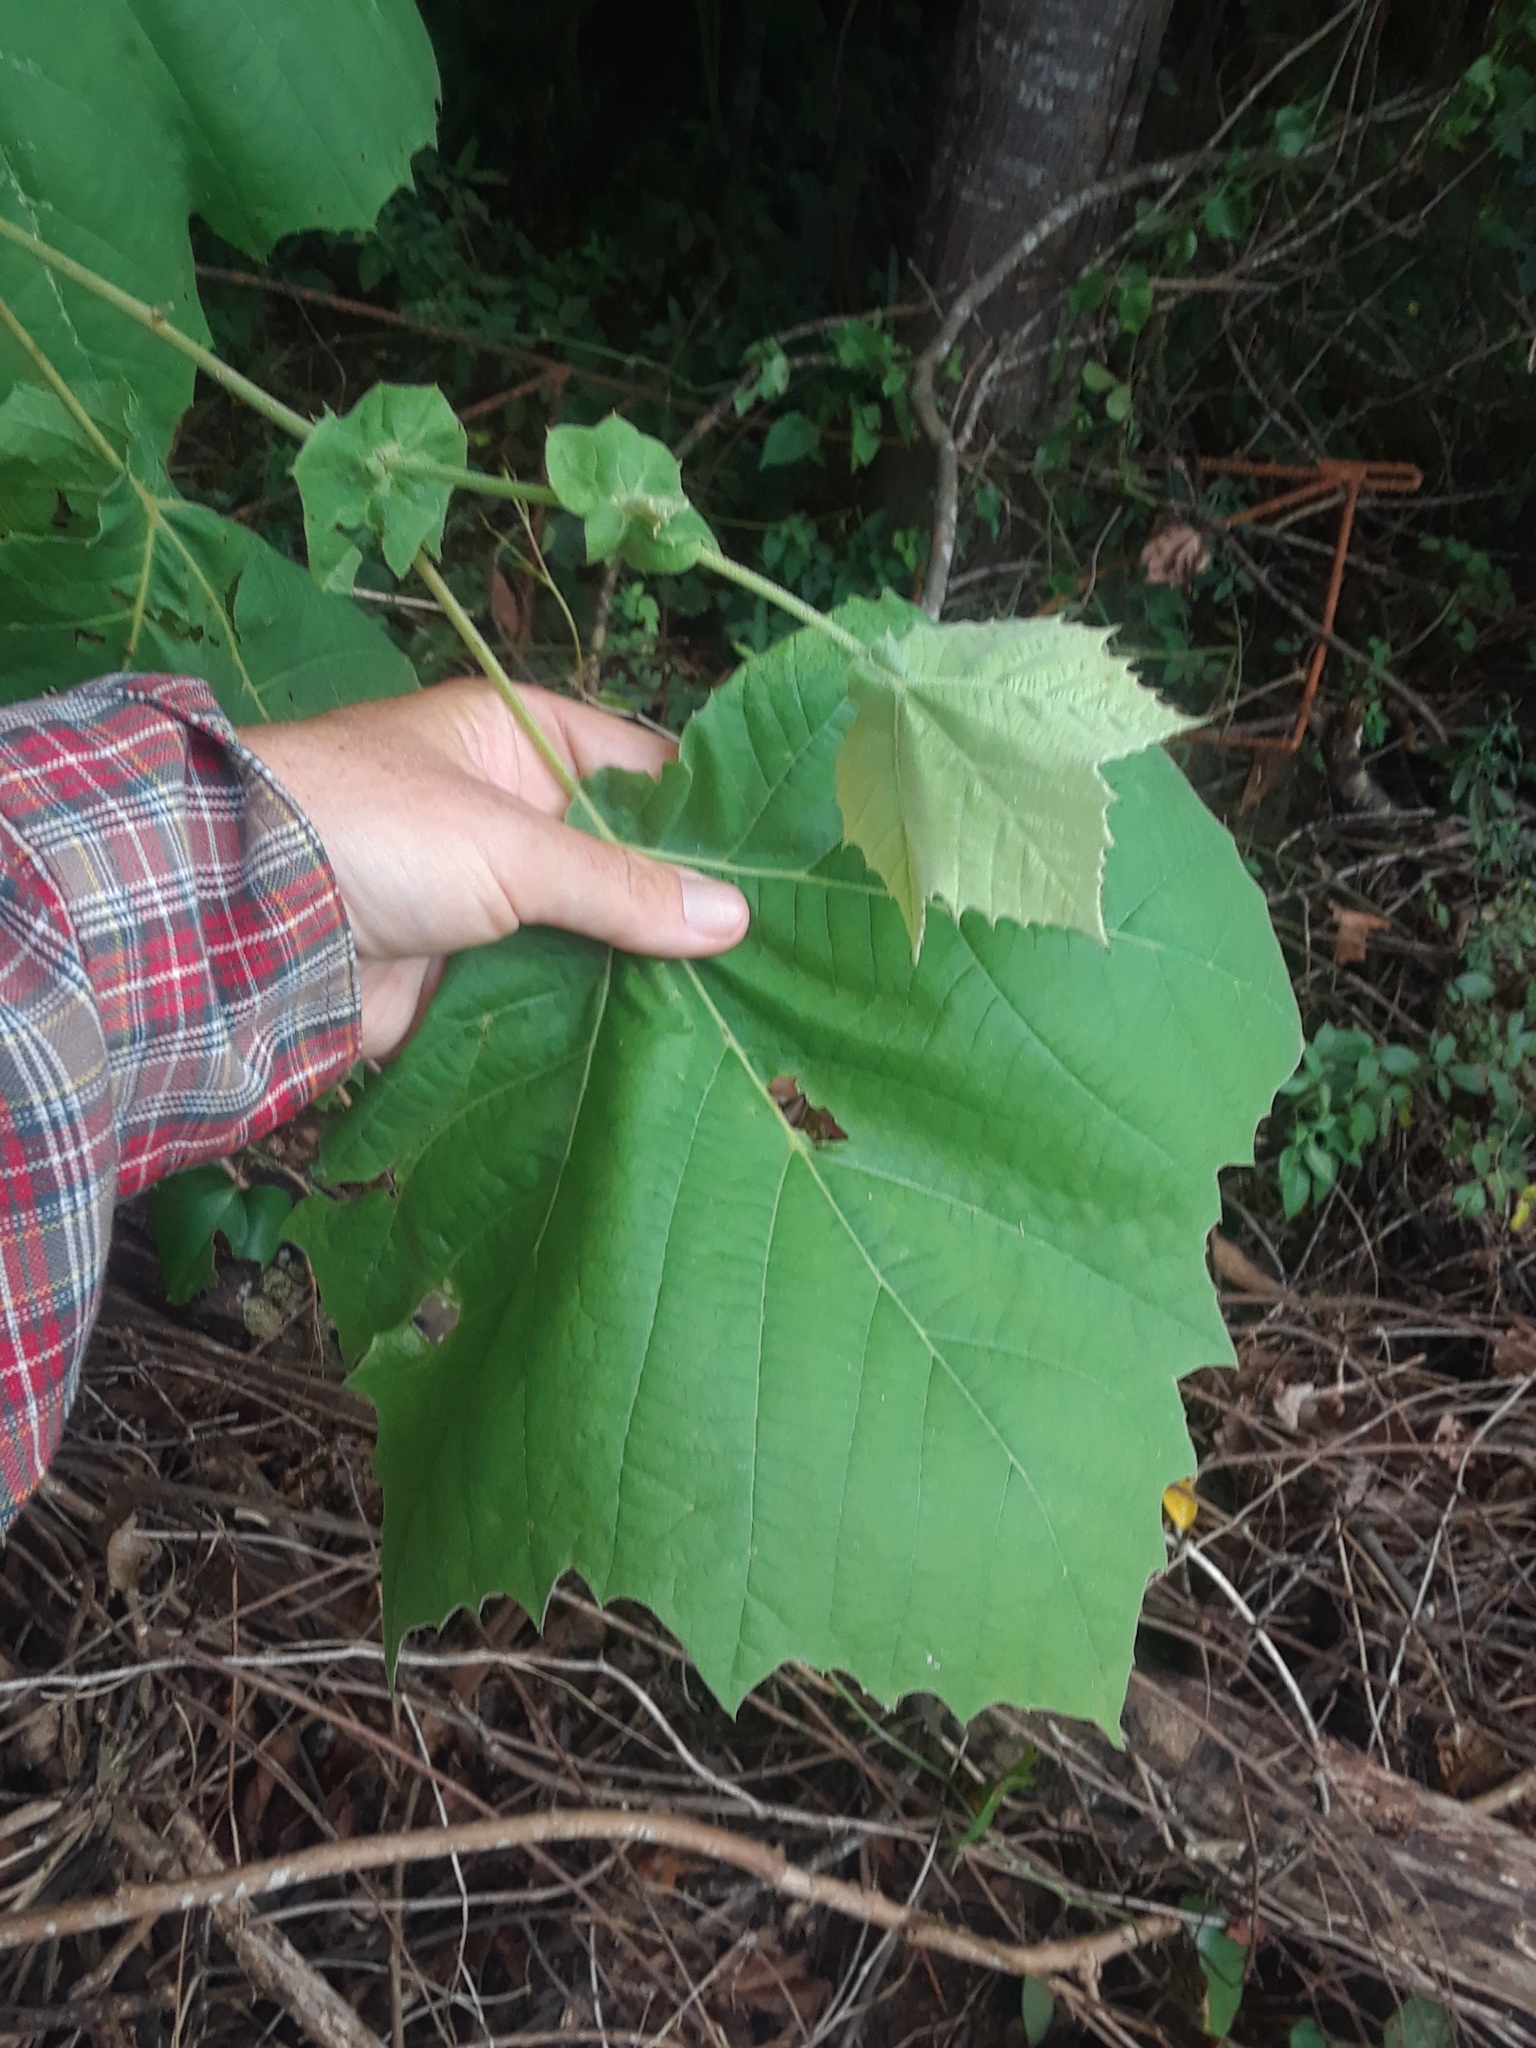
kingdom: Plantae
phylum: Tracheophyta
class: Magnoliopsida
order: Proteales
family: Platanaceae
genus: Platanus
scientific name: Platanus occidentalis
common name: American sycamore
